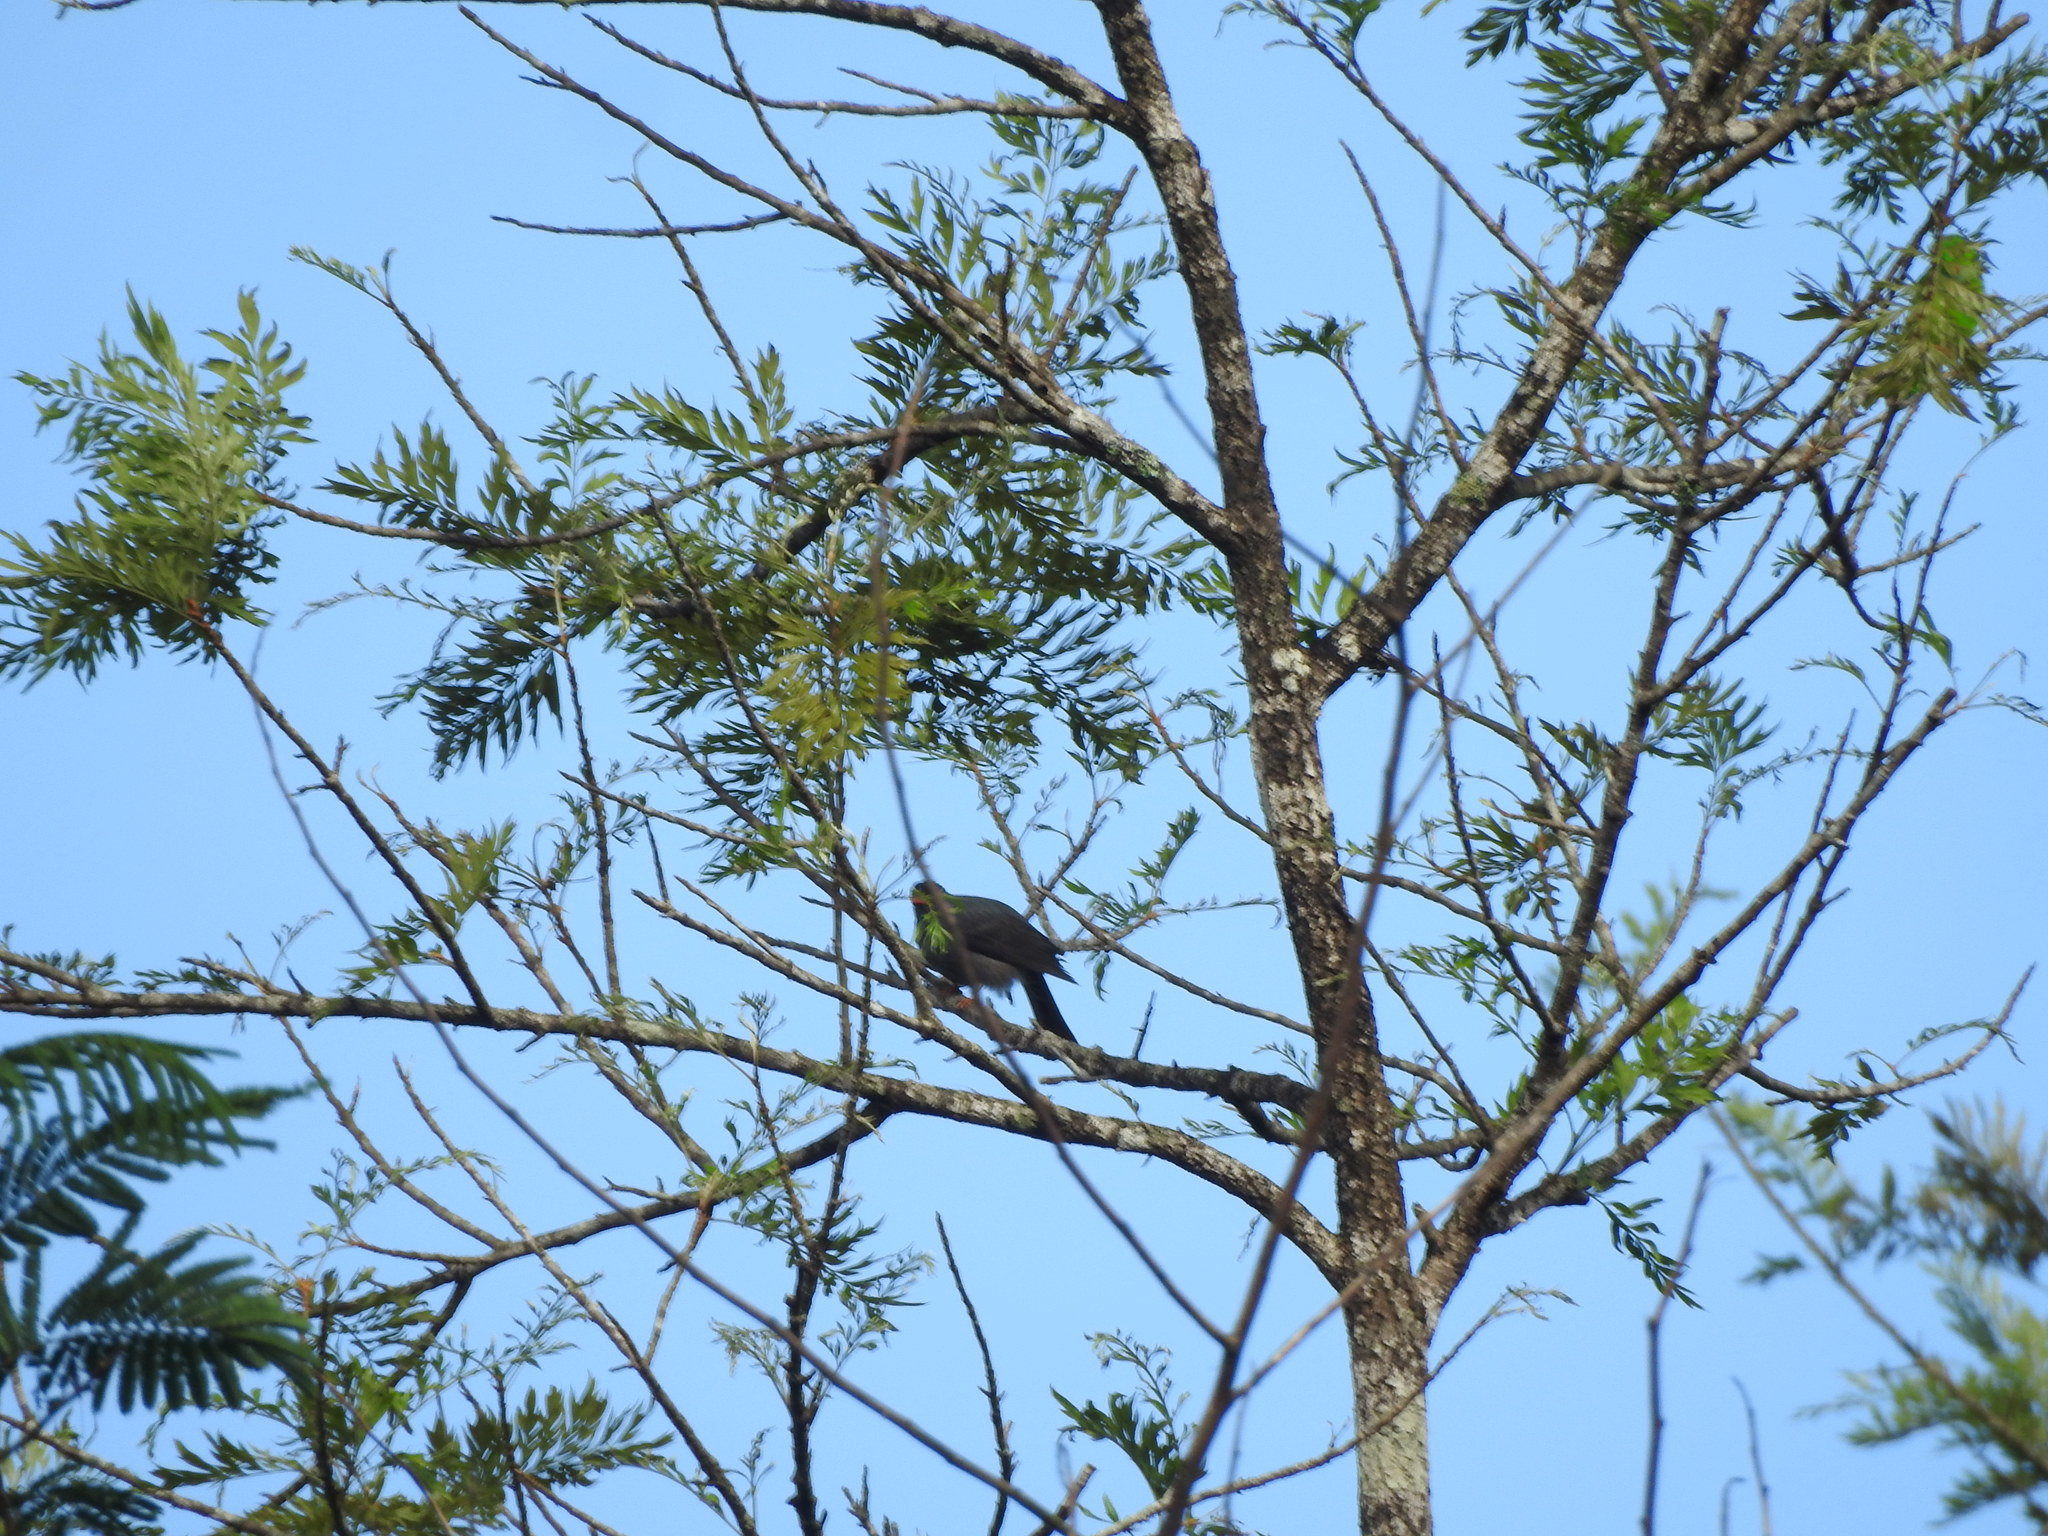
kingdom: Animalia
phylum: Chordata
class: Aves
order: Passeriformes
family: Pycnonotidae
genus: Hypsipetes
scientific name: Hypsipetes ganeesa
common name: Square-tailed bulbul
